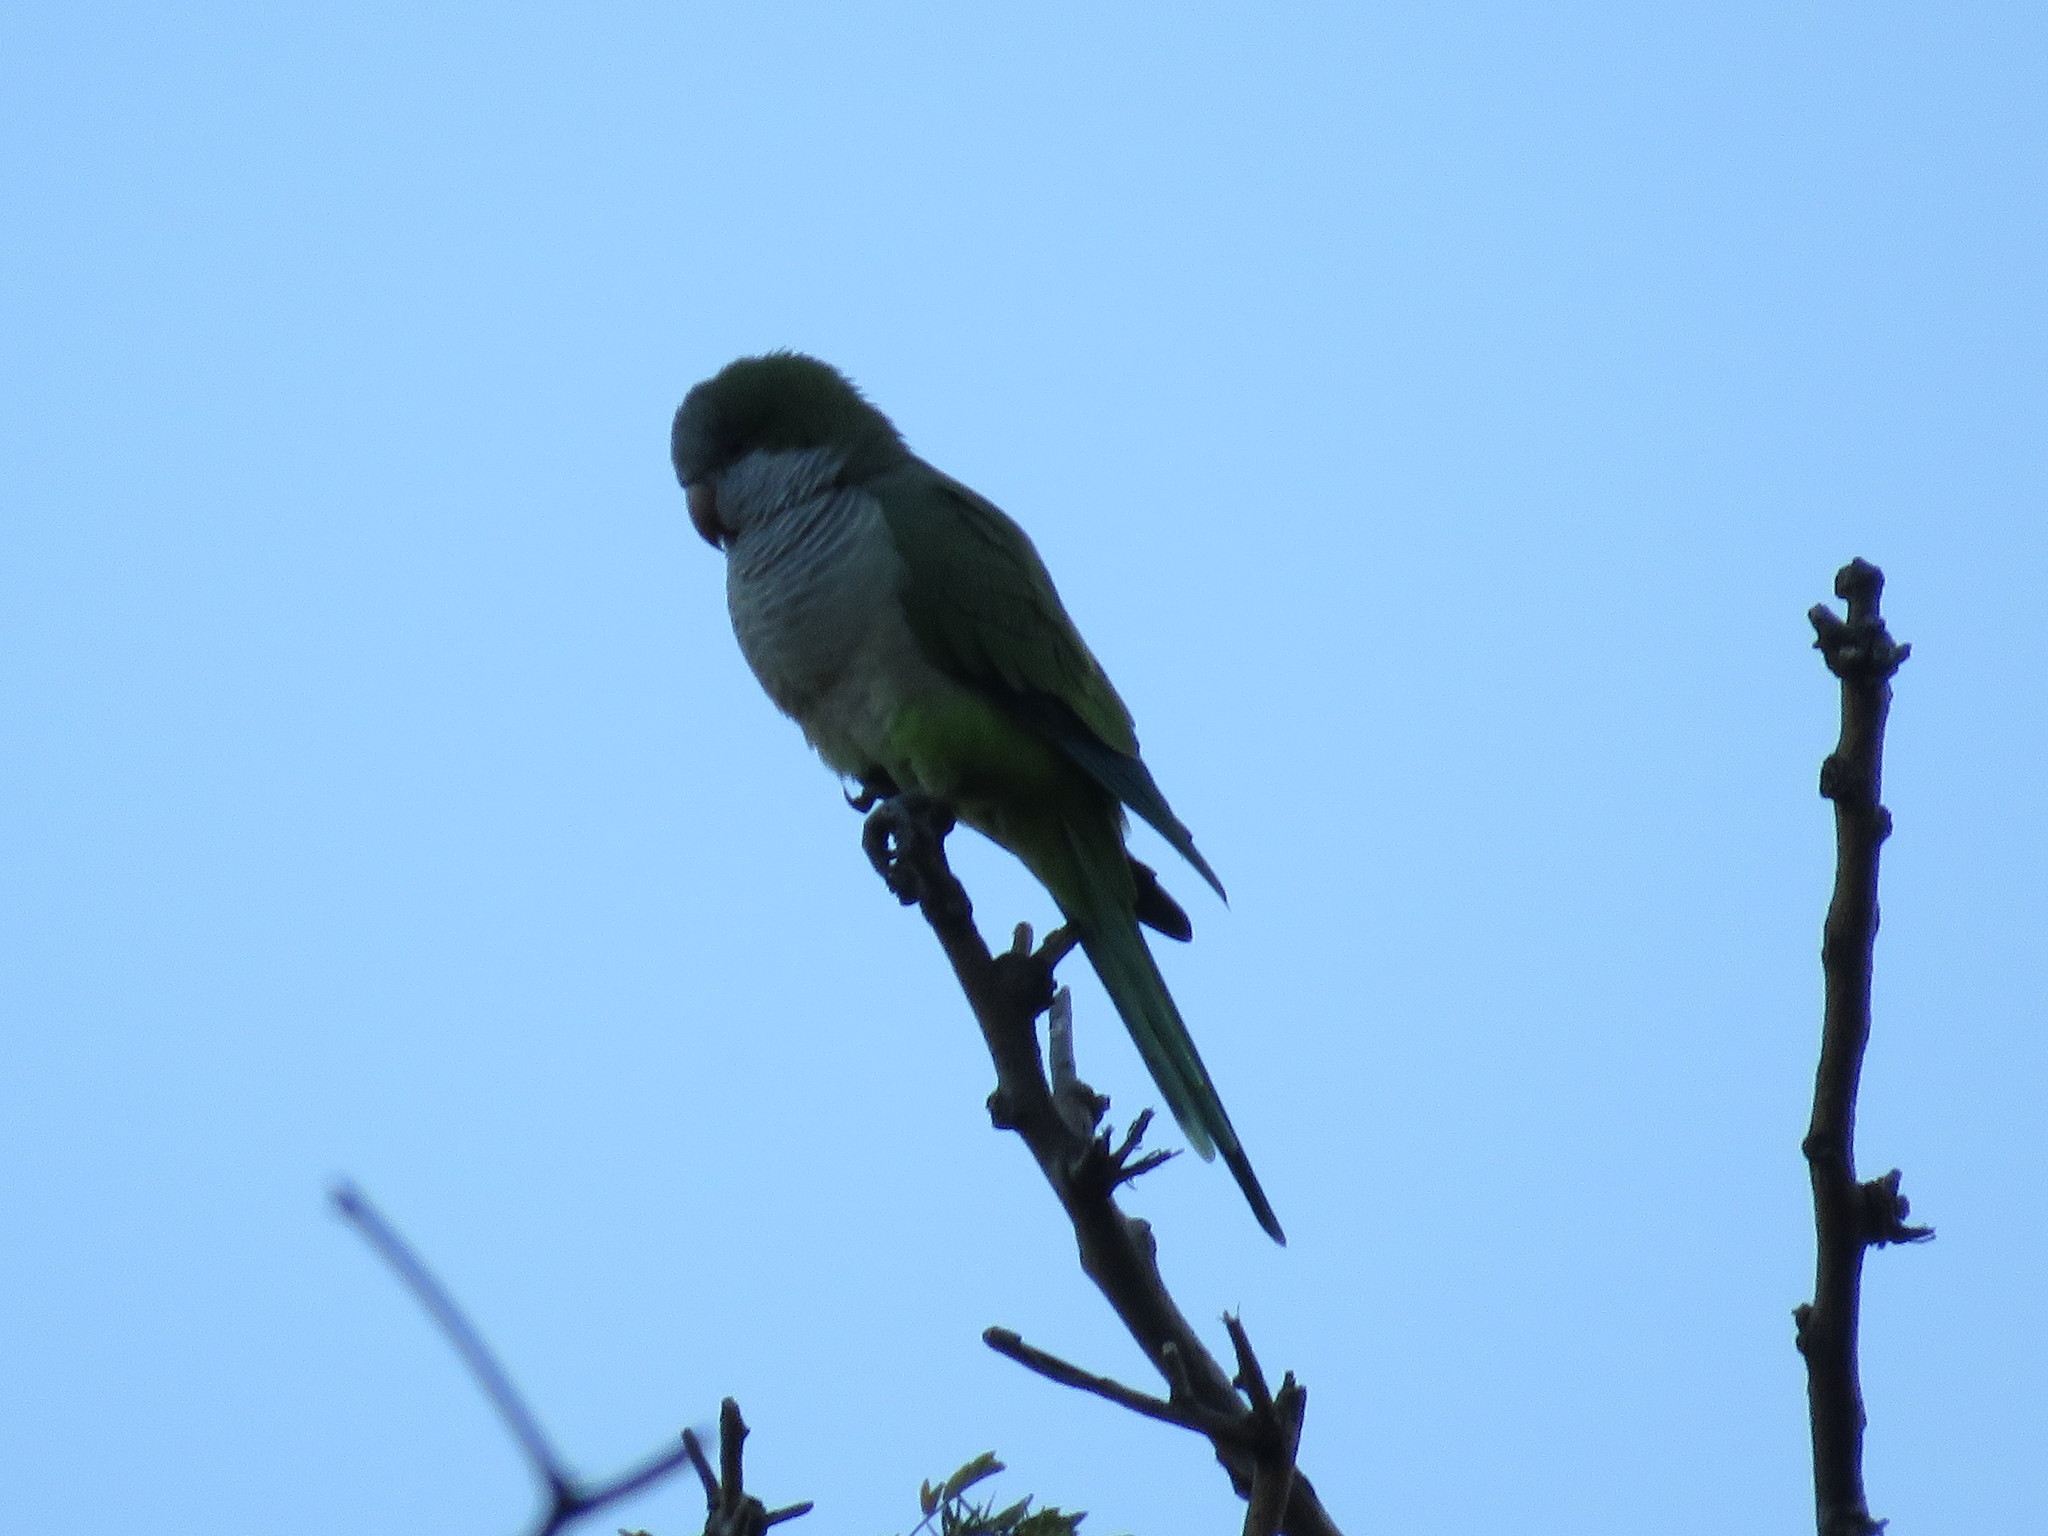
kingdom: Animalia
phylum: Chordata
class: Aves
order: Psittaciformes
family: Psittacidae
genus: Myiopsitta
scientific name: Myiopsitta monachus
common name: Monk parakeet
